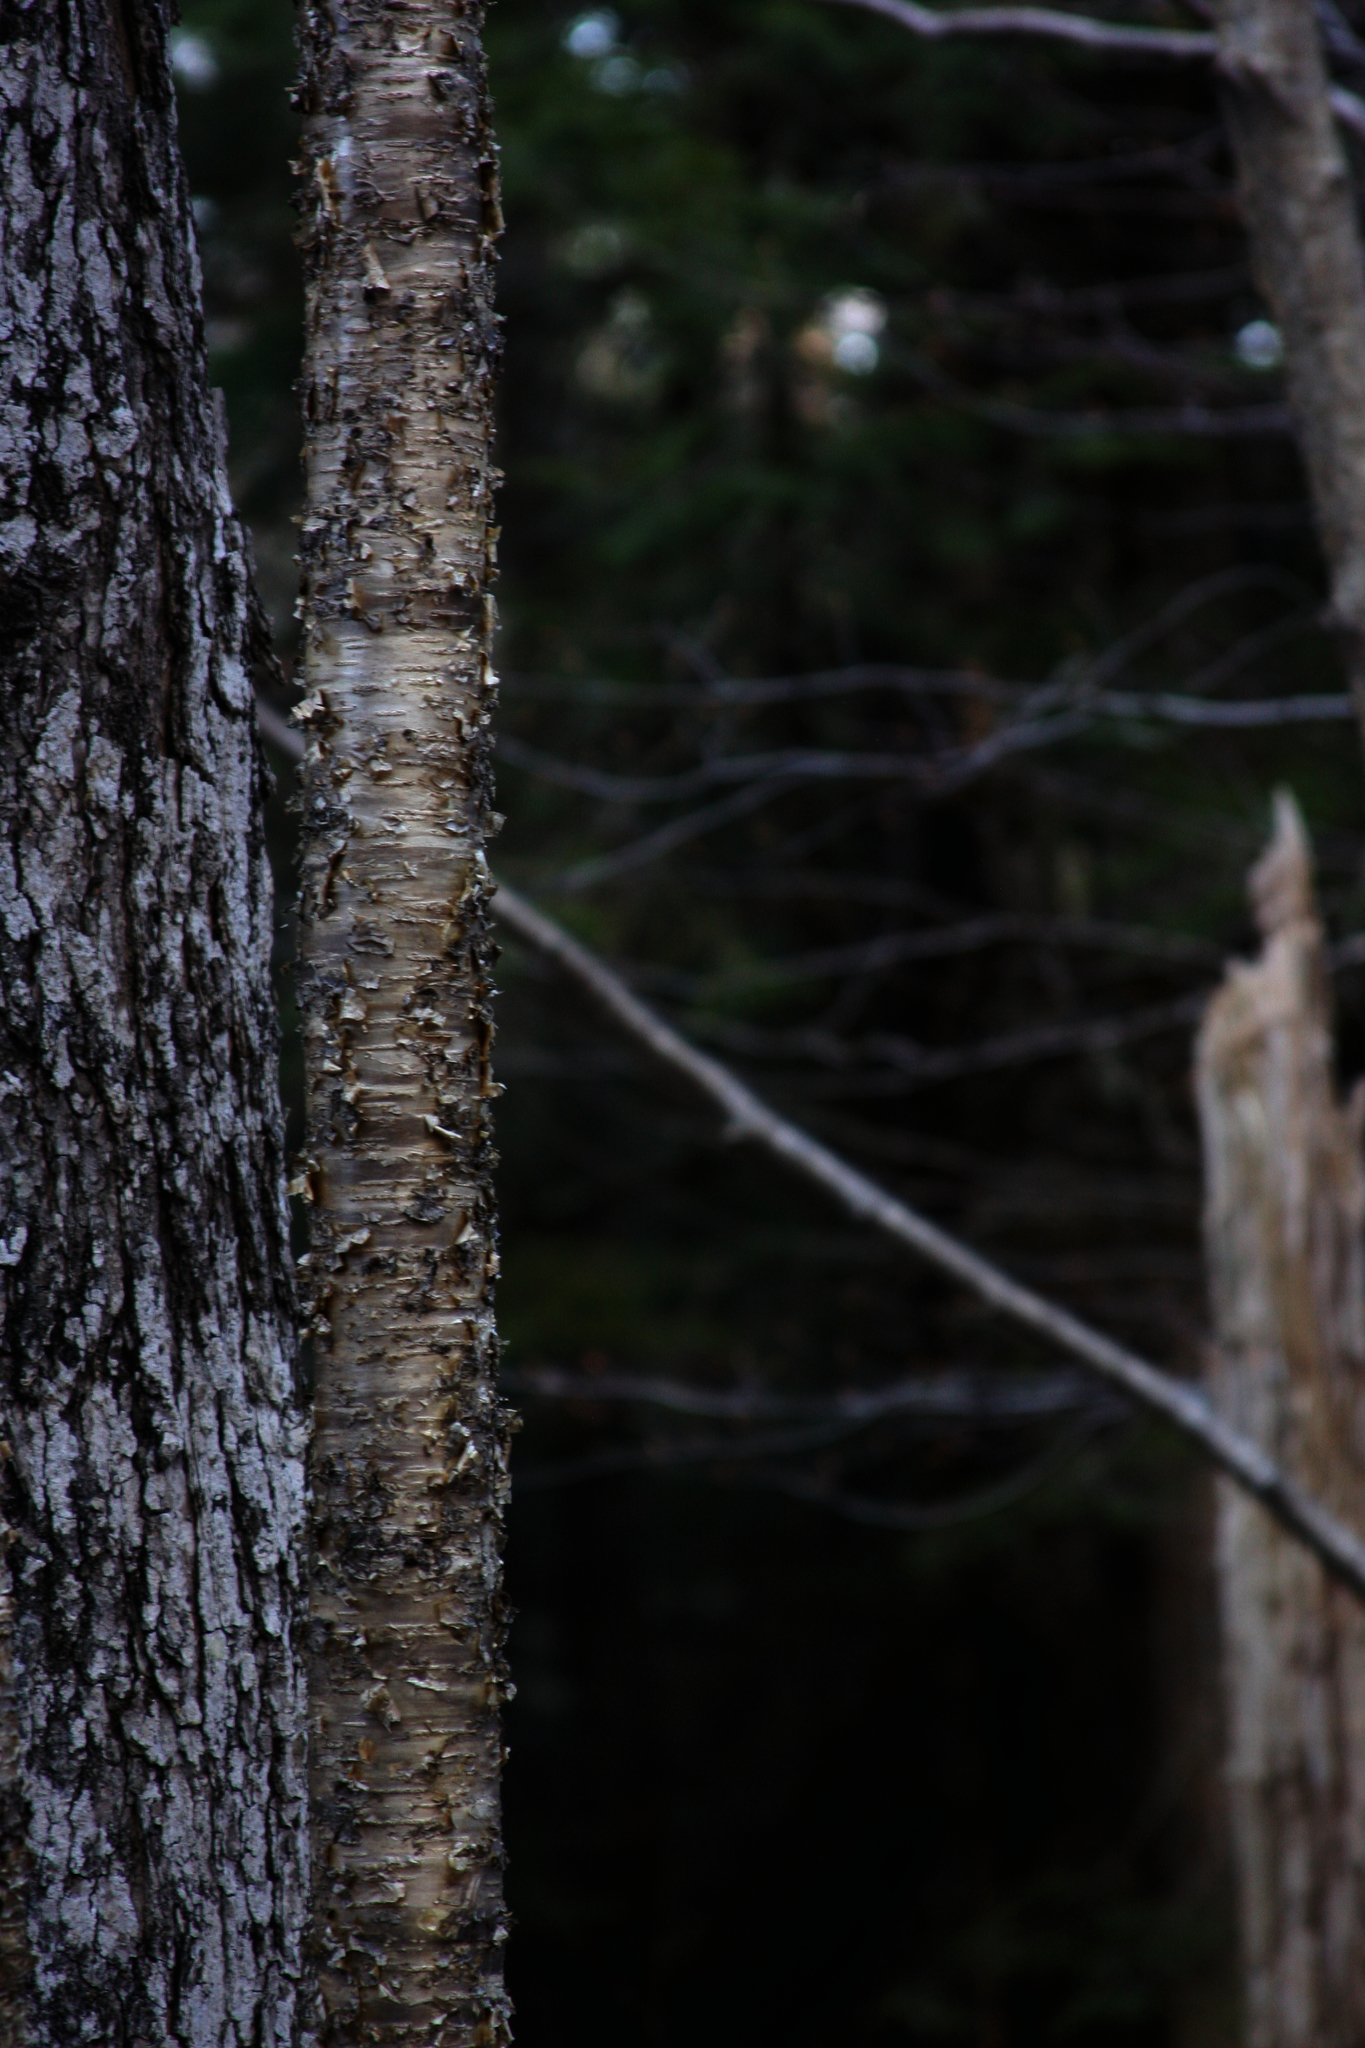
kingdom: Plantae
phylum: Tracheophyta
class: Magnoliopsida
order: Fagales
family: Betulaceae
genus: Betula
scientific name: Betula alleghaniensis
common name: Yellow birch
